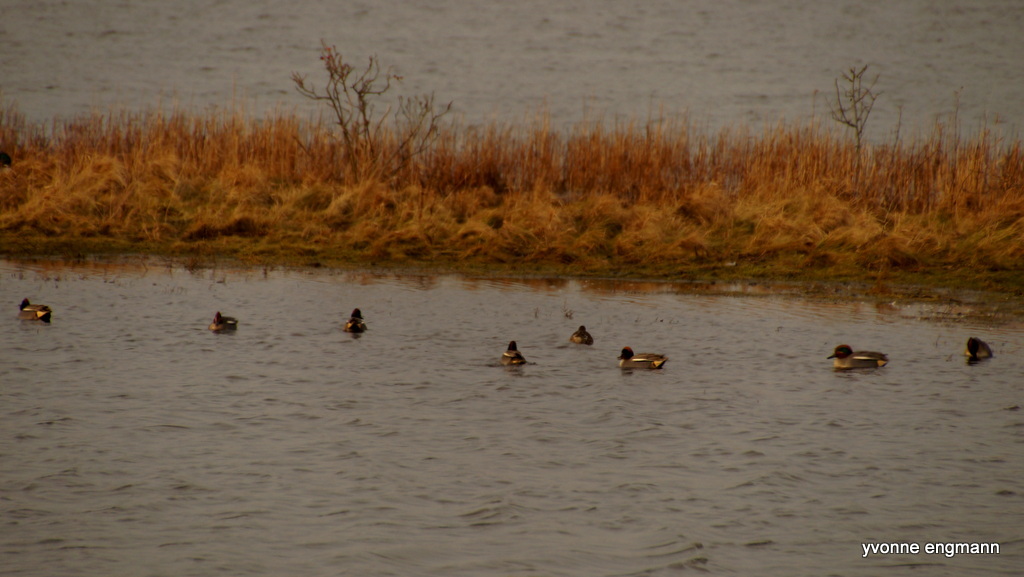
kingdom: Animalia
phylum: Chordata
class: Aves
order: Anseriformes
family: Anatidae
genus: Anas
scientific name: Anas crecca
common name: Eurasian teal
